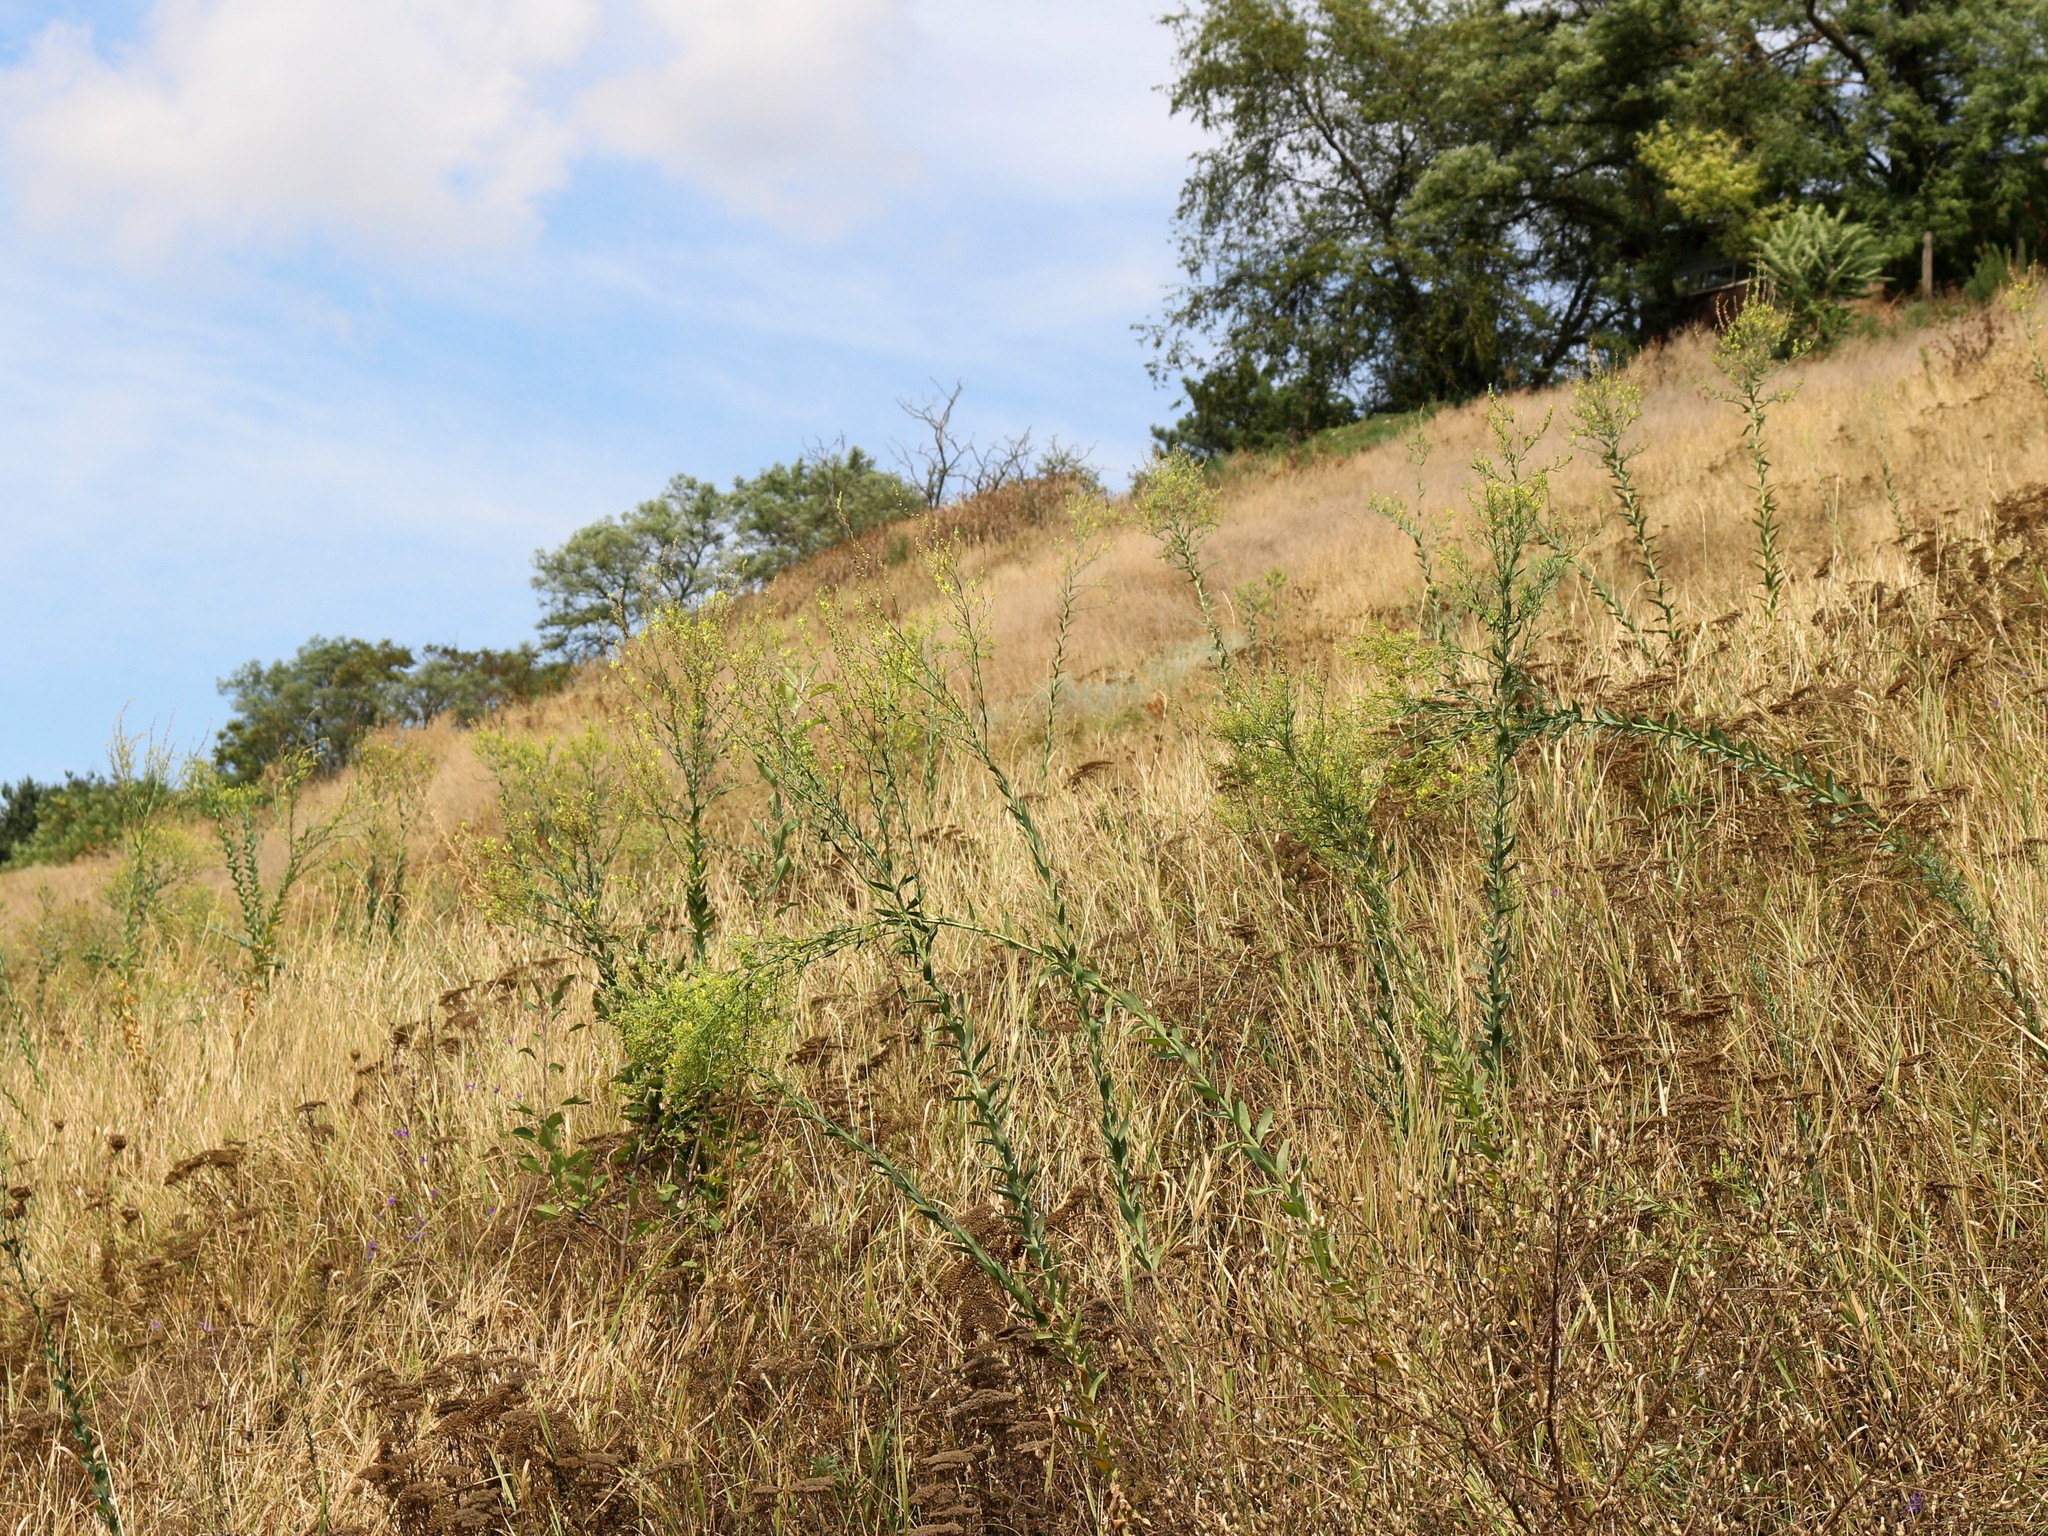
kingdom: Plantae
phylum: Tracheophyta
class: Magnoliopsida
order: Lamiales
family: Plantaginaceae
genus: Linaria
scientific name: Linaria genistifolia
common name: Broomleaf toadflax
